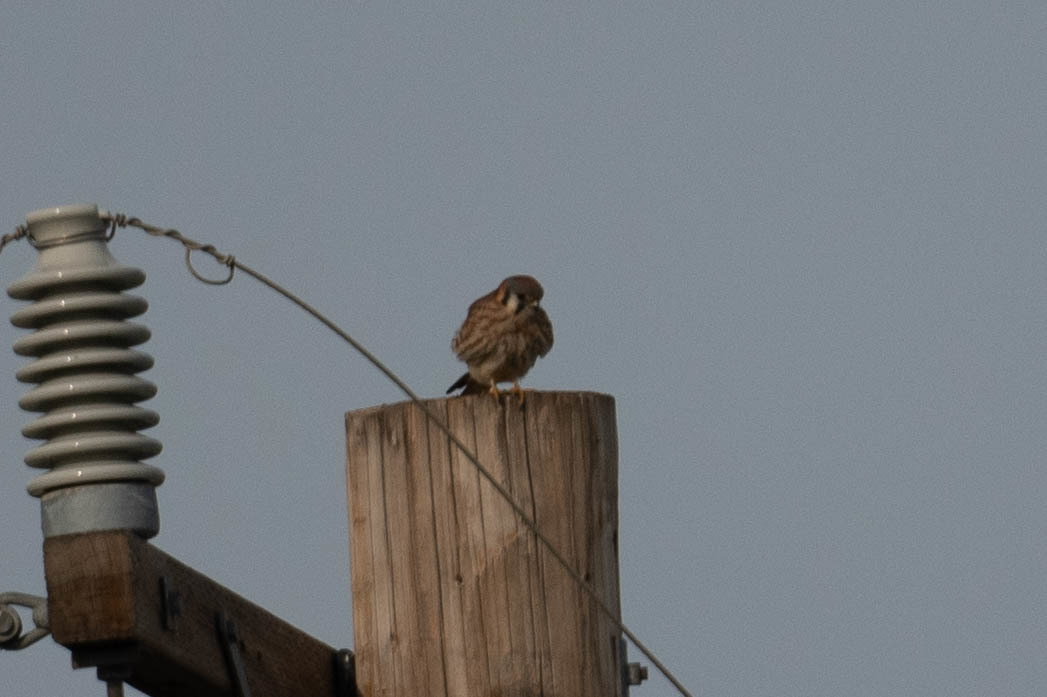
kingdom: Animalia
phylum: Chordata
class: Aves
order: Falconiformes
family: Falconidae
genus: Falco
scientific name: Falco sparverius
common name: American kestrel
